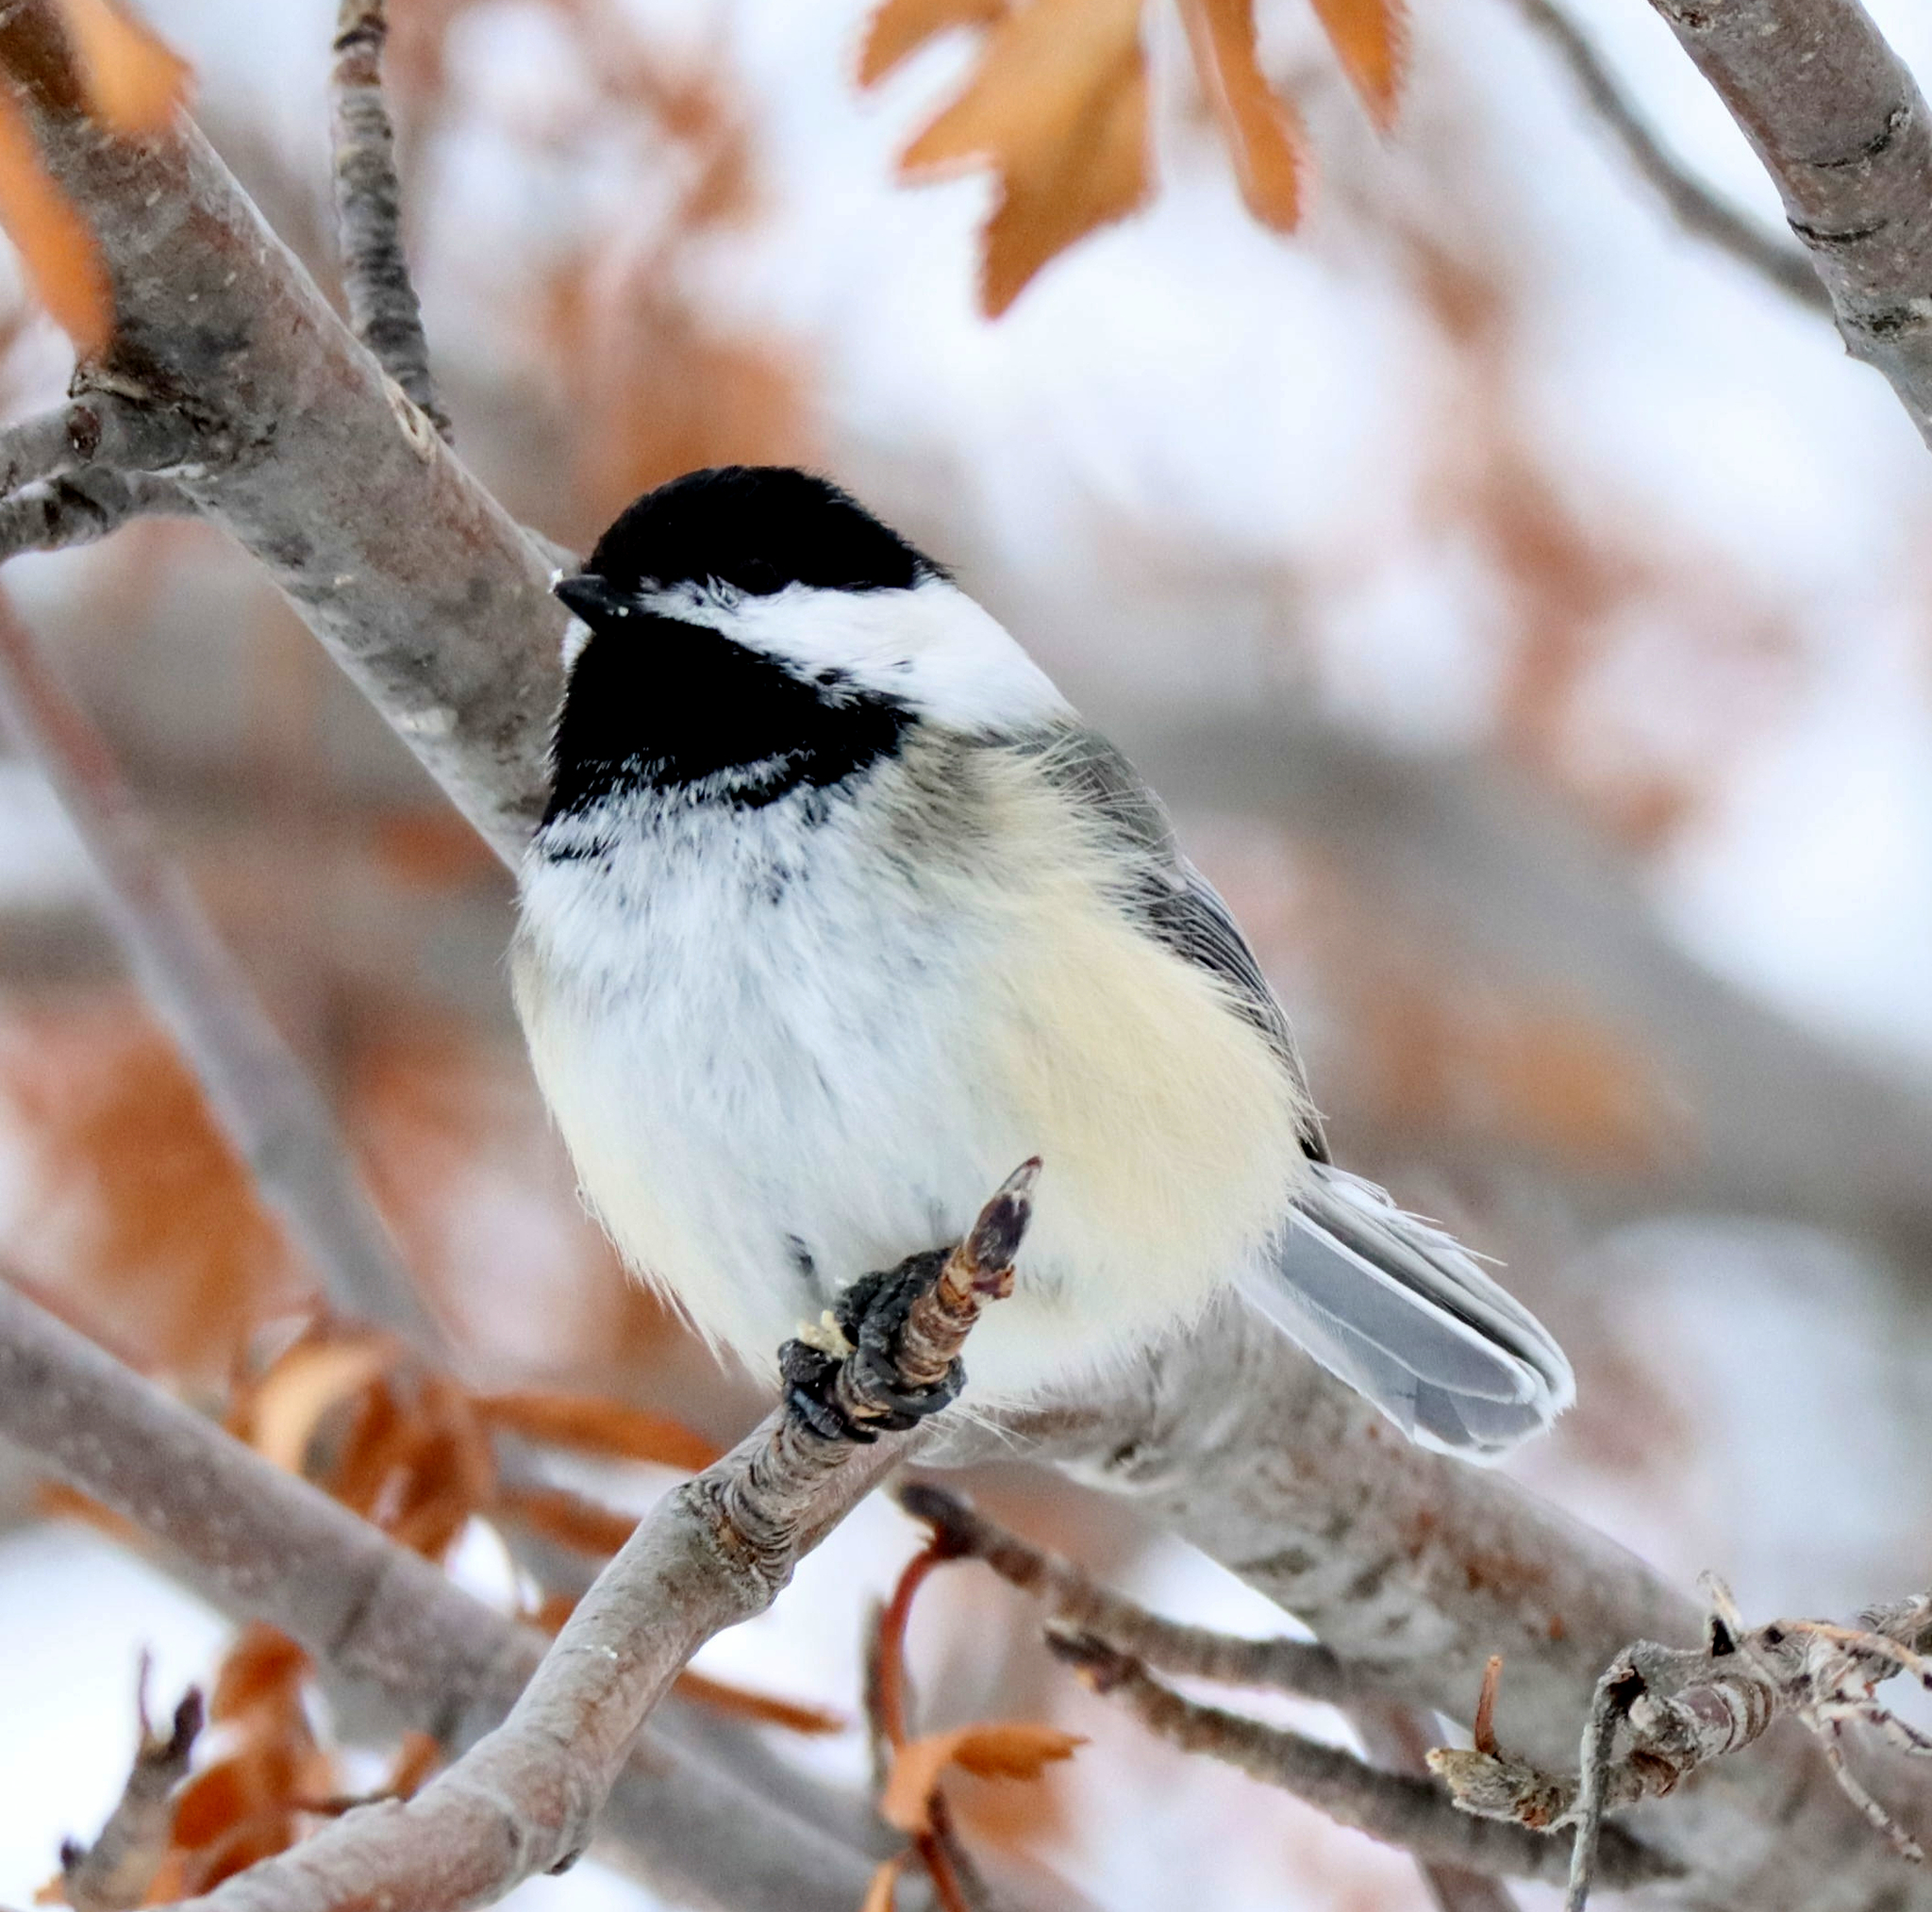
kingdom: Animalia
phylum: Chordata
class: Aves
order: Passeriformes
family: Paridae
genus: Poecile
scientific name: Poecile atricapillus
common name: Black-capped chickadee
